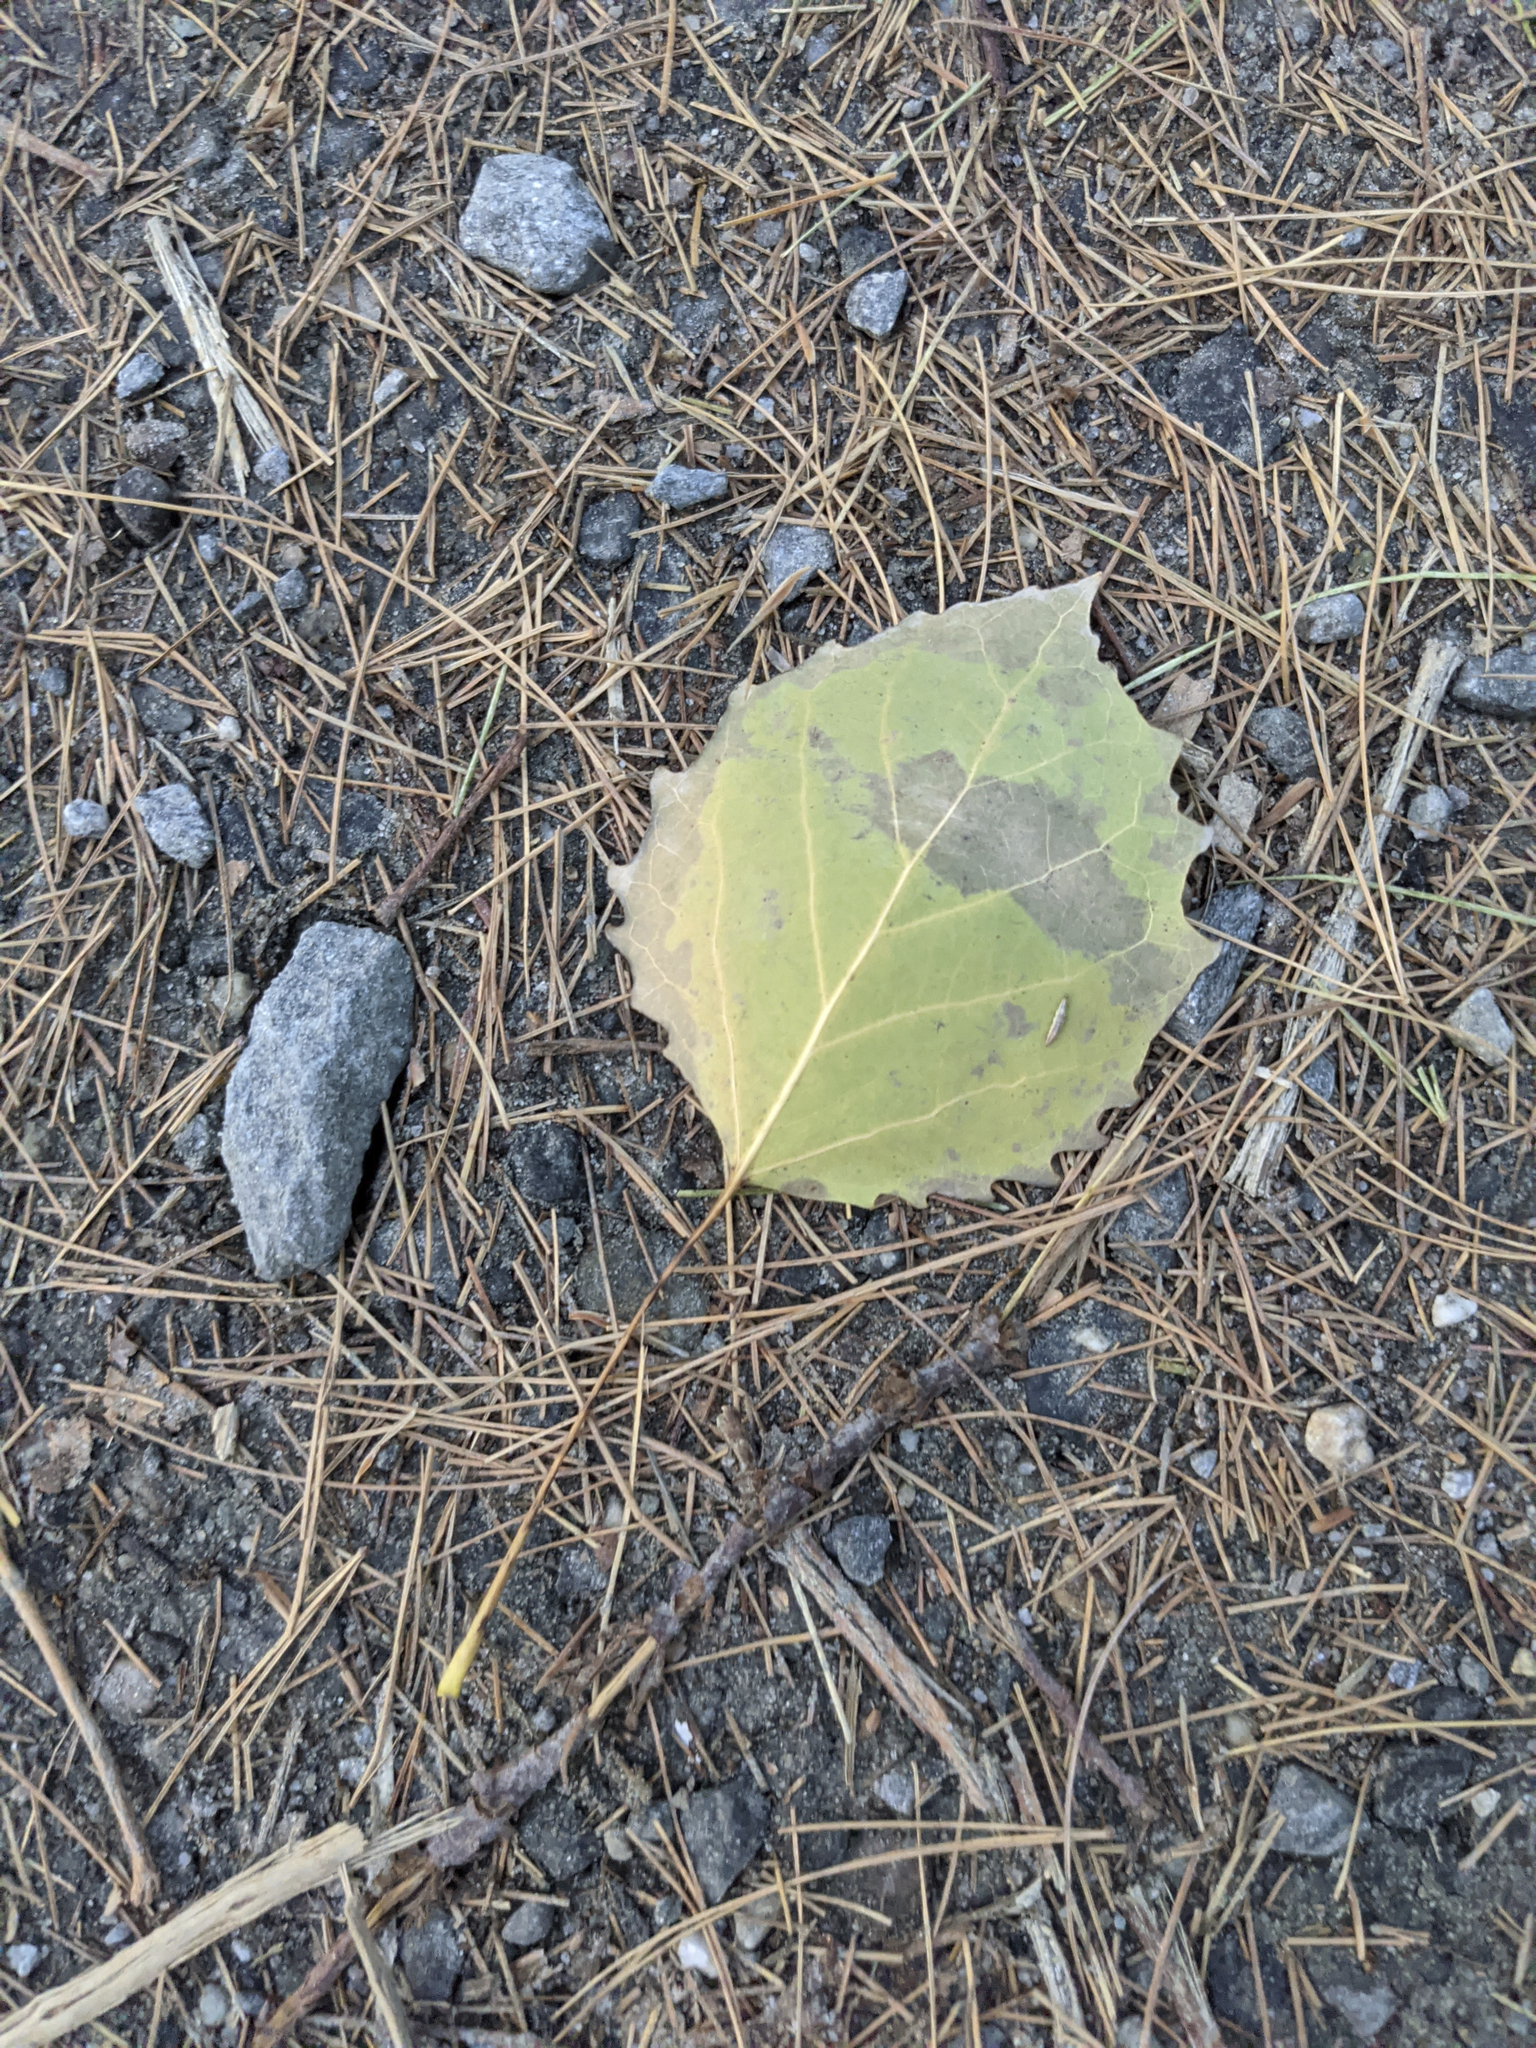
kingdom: Plantae
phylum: Tracheophyta
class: Magnoliopsida
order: Malpighiales
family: Salicaceae
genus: Populus
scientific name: Populus grandidentata
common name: Bigtooth aspen
